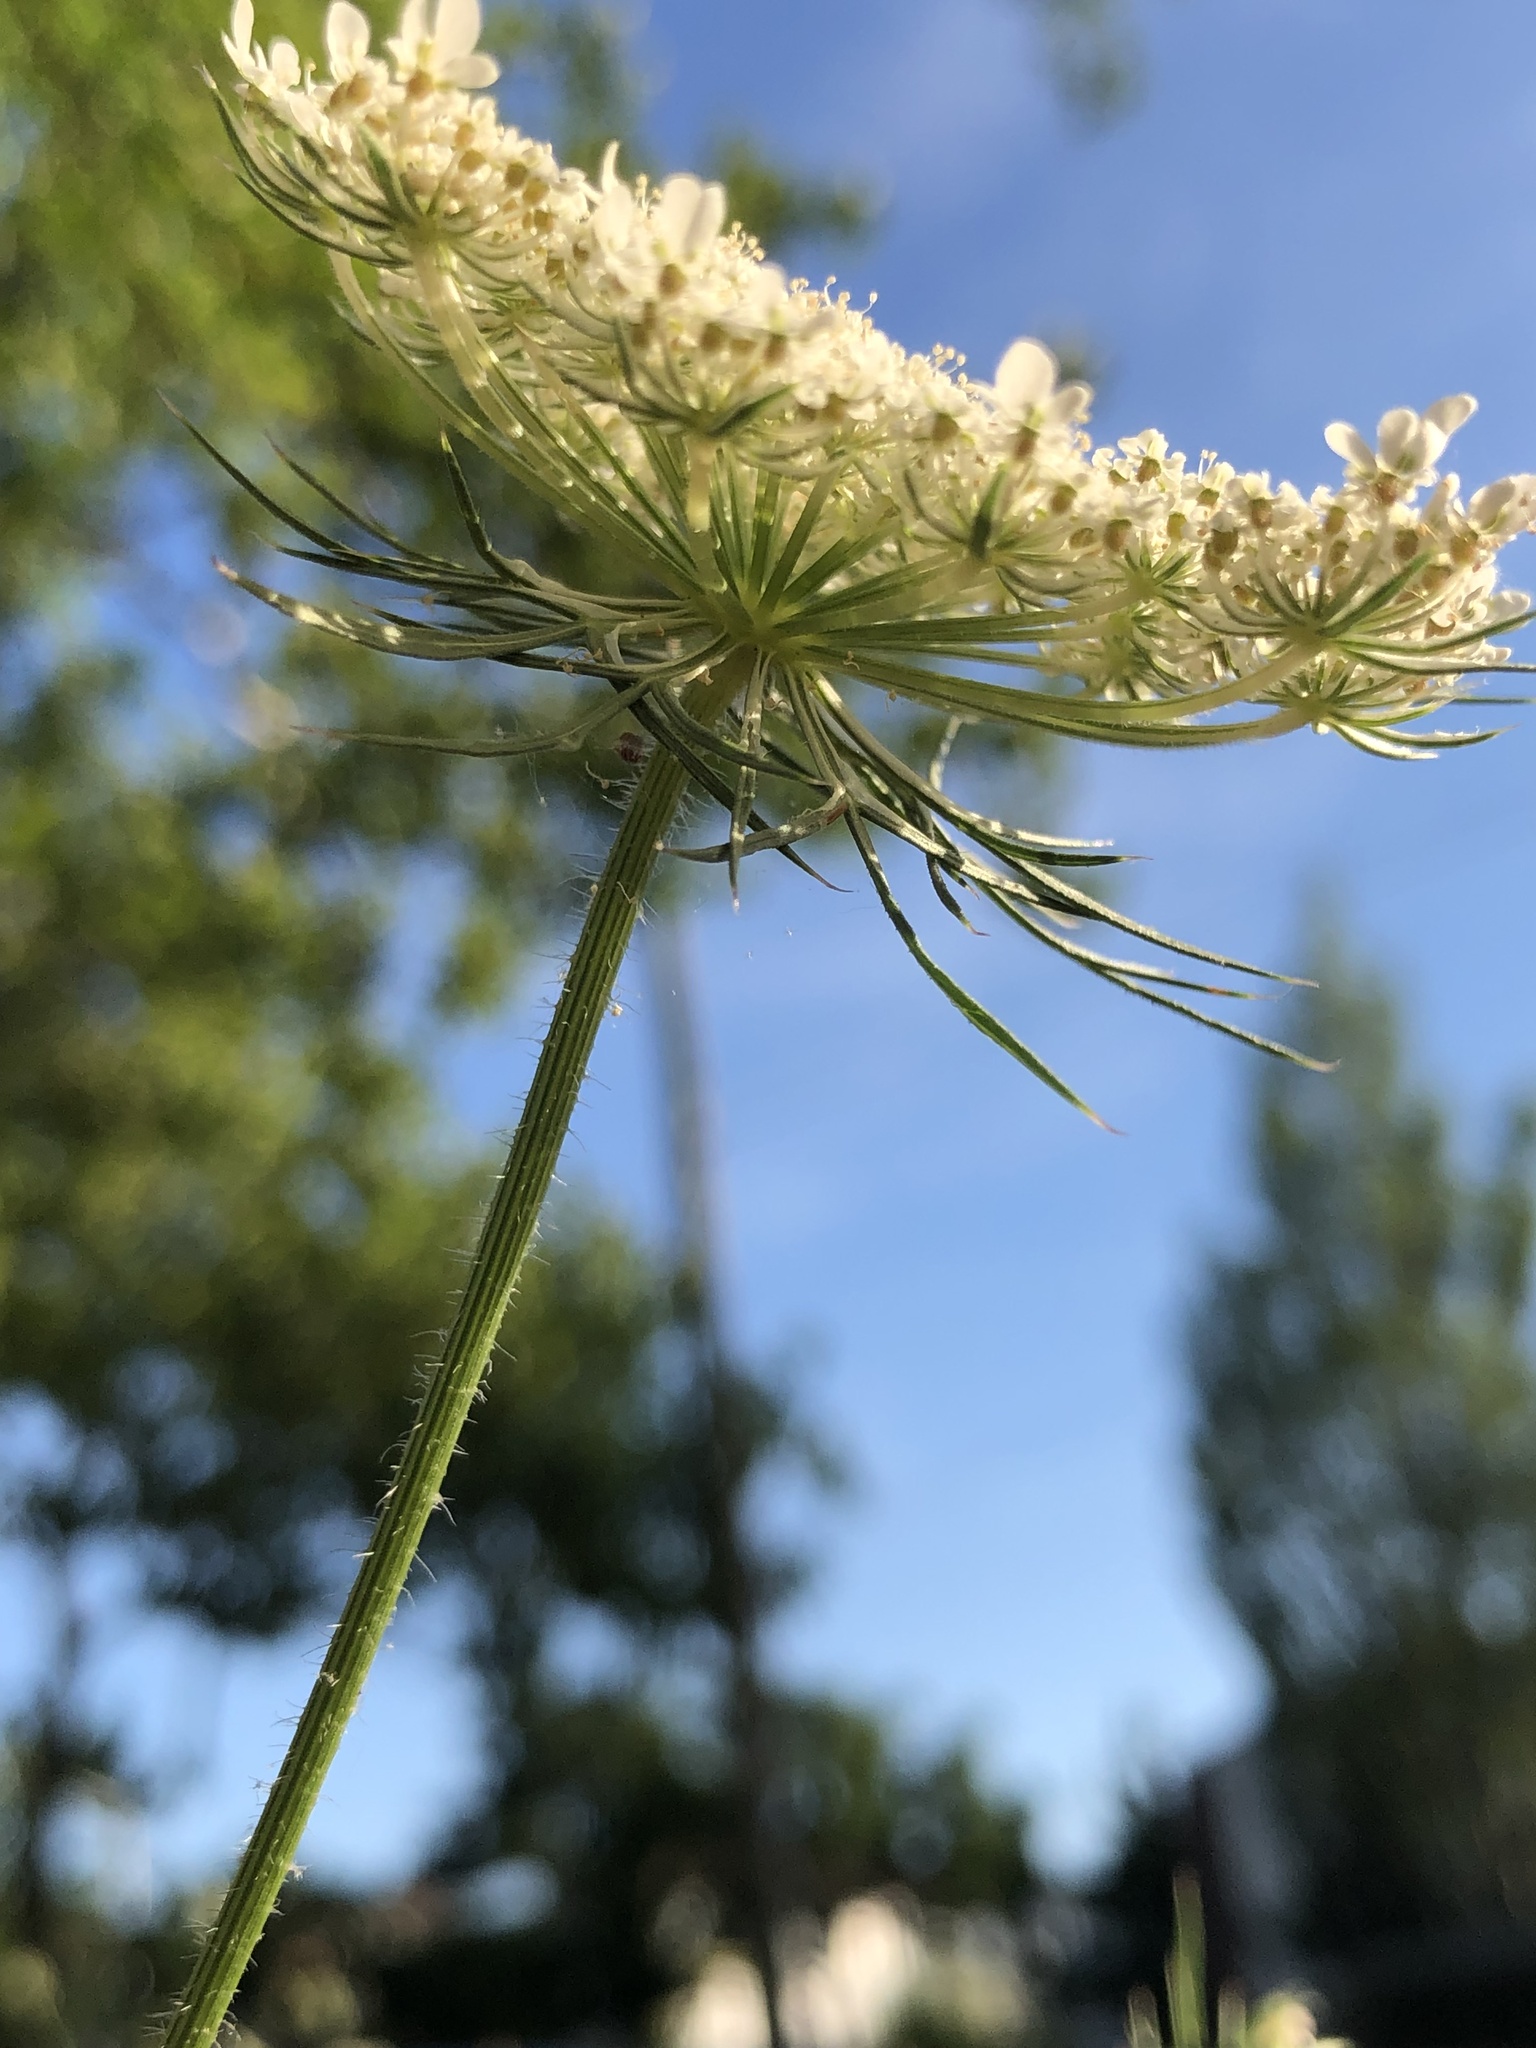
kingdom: Plantae
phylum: Tracheophyta
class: Magnoliopsida
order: Apiales
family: Apiaceae
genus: Daucus
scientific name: Daucus carota
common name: Wild carrot
